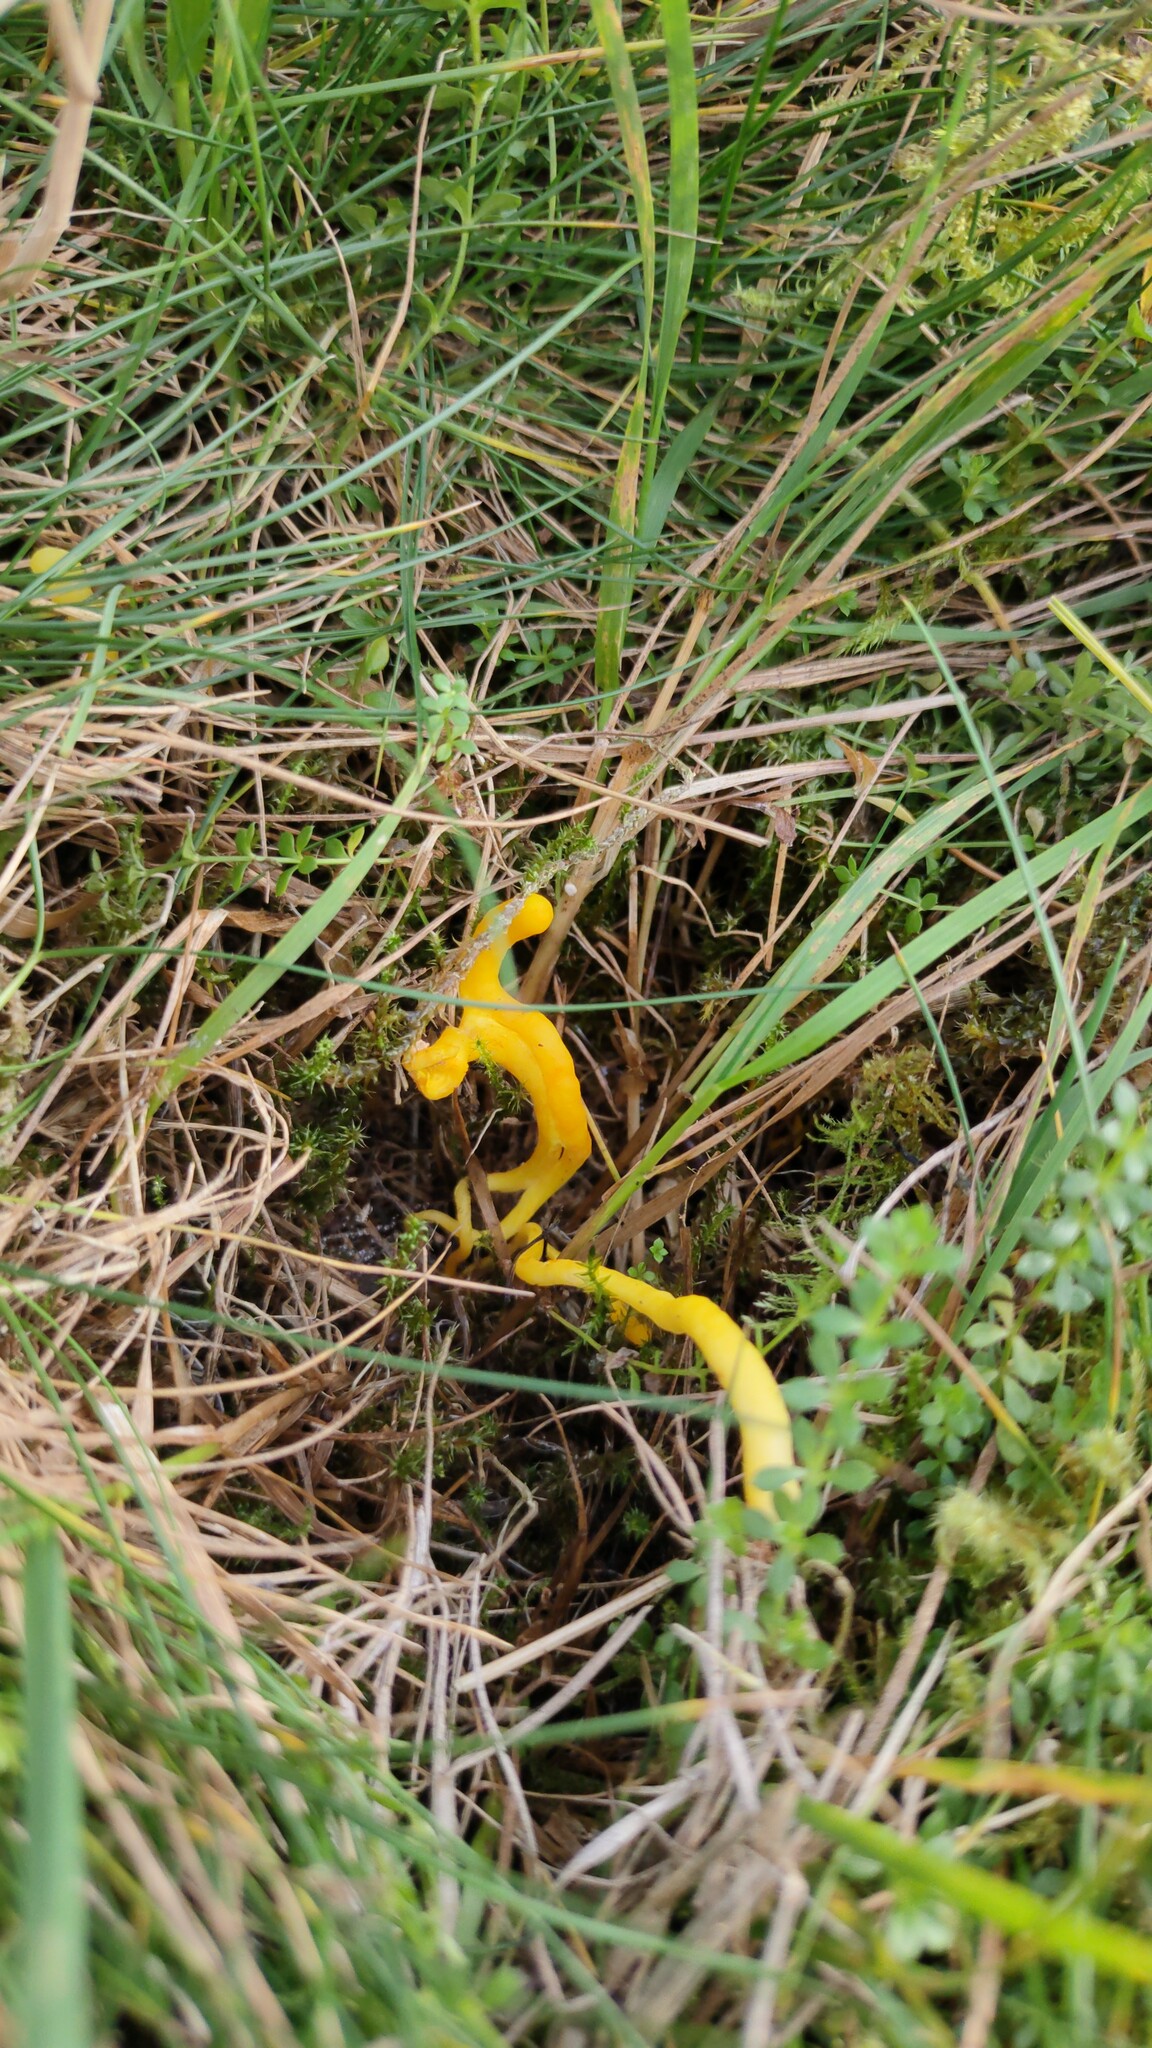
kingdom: Fungi
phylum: Basidiomycota
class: Agaricomycetes
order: Agaricales
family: Clavariaceae
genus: Clavulinopsis
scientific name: Clavulinopsis helvola
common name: Yellow club
